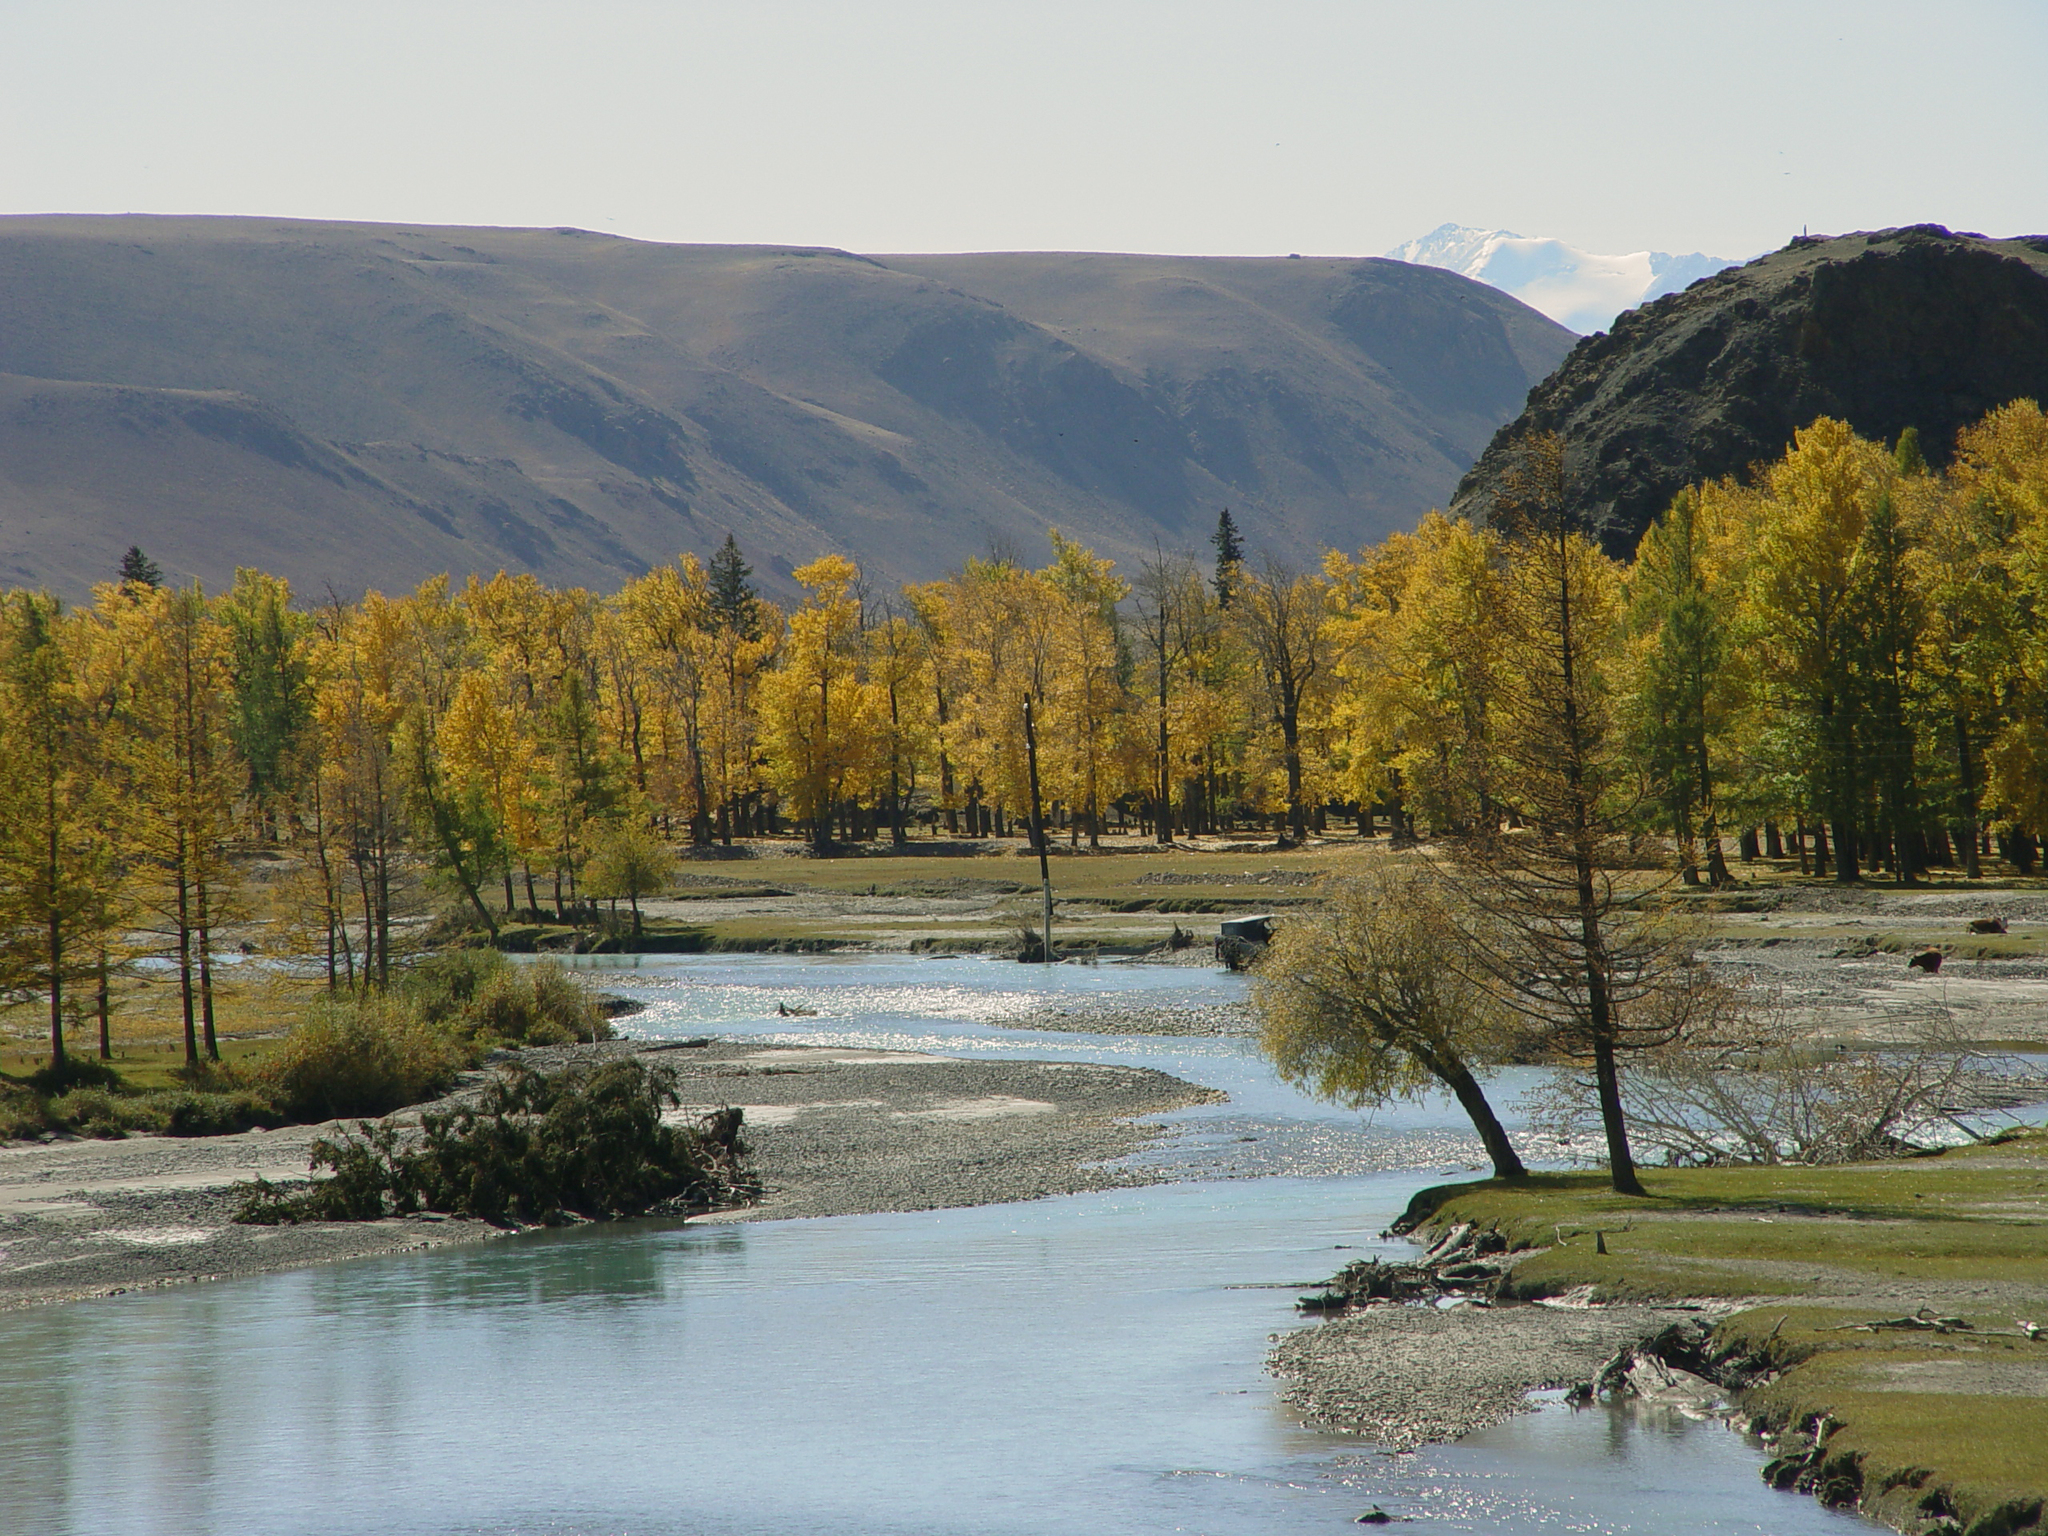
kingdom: Plantae
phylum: Tracheophyta
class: Pinopsida
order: Pinales
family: Pinaceae
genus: Larix
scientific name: Larix sibirica
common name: Siberian larch
